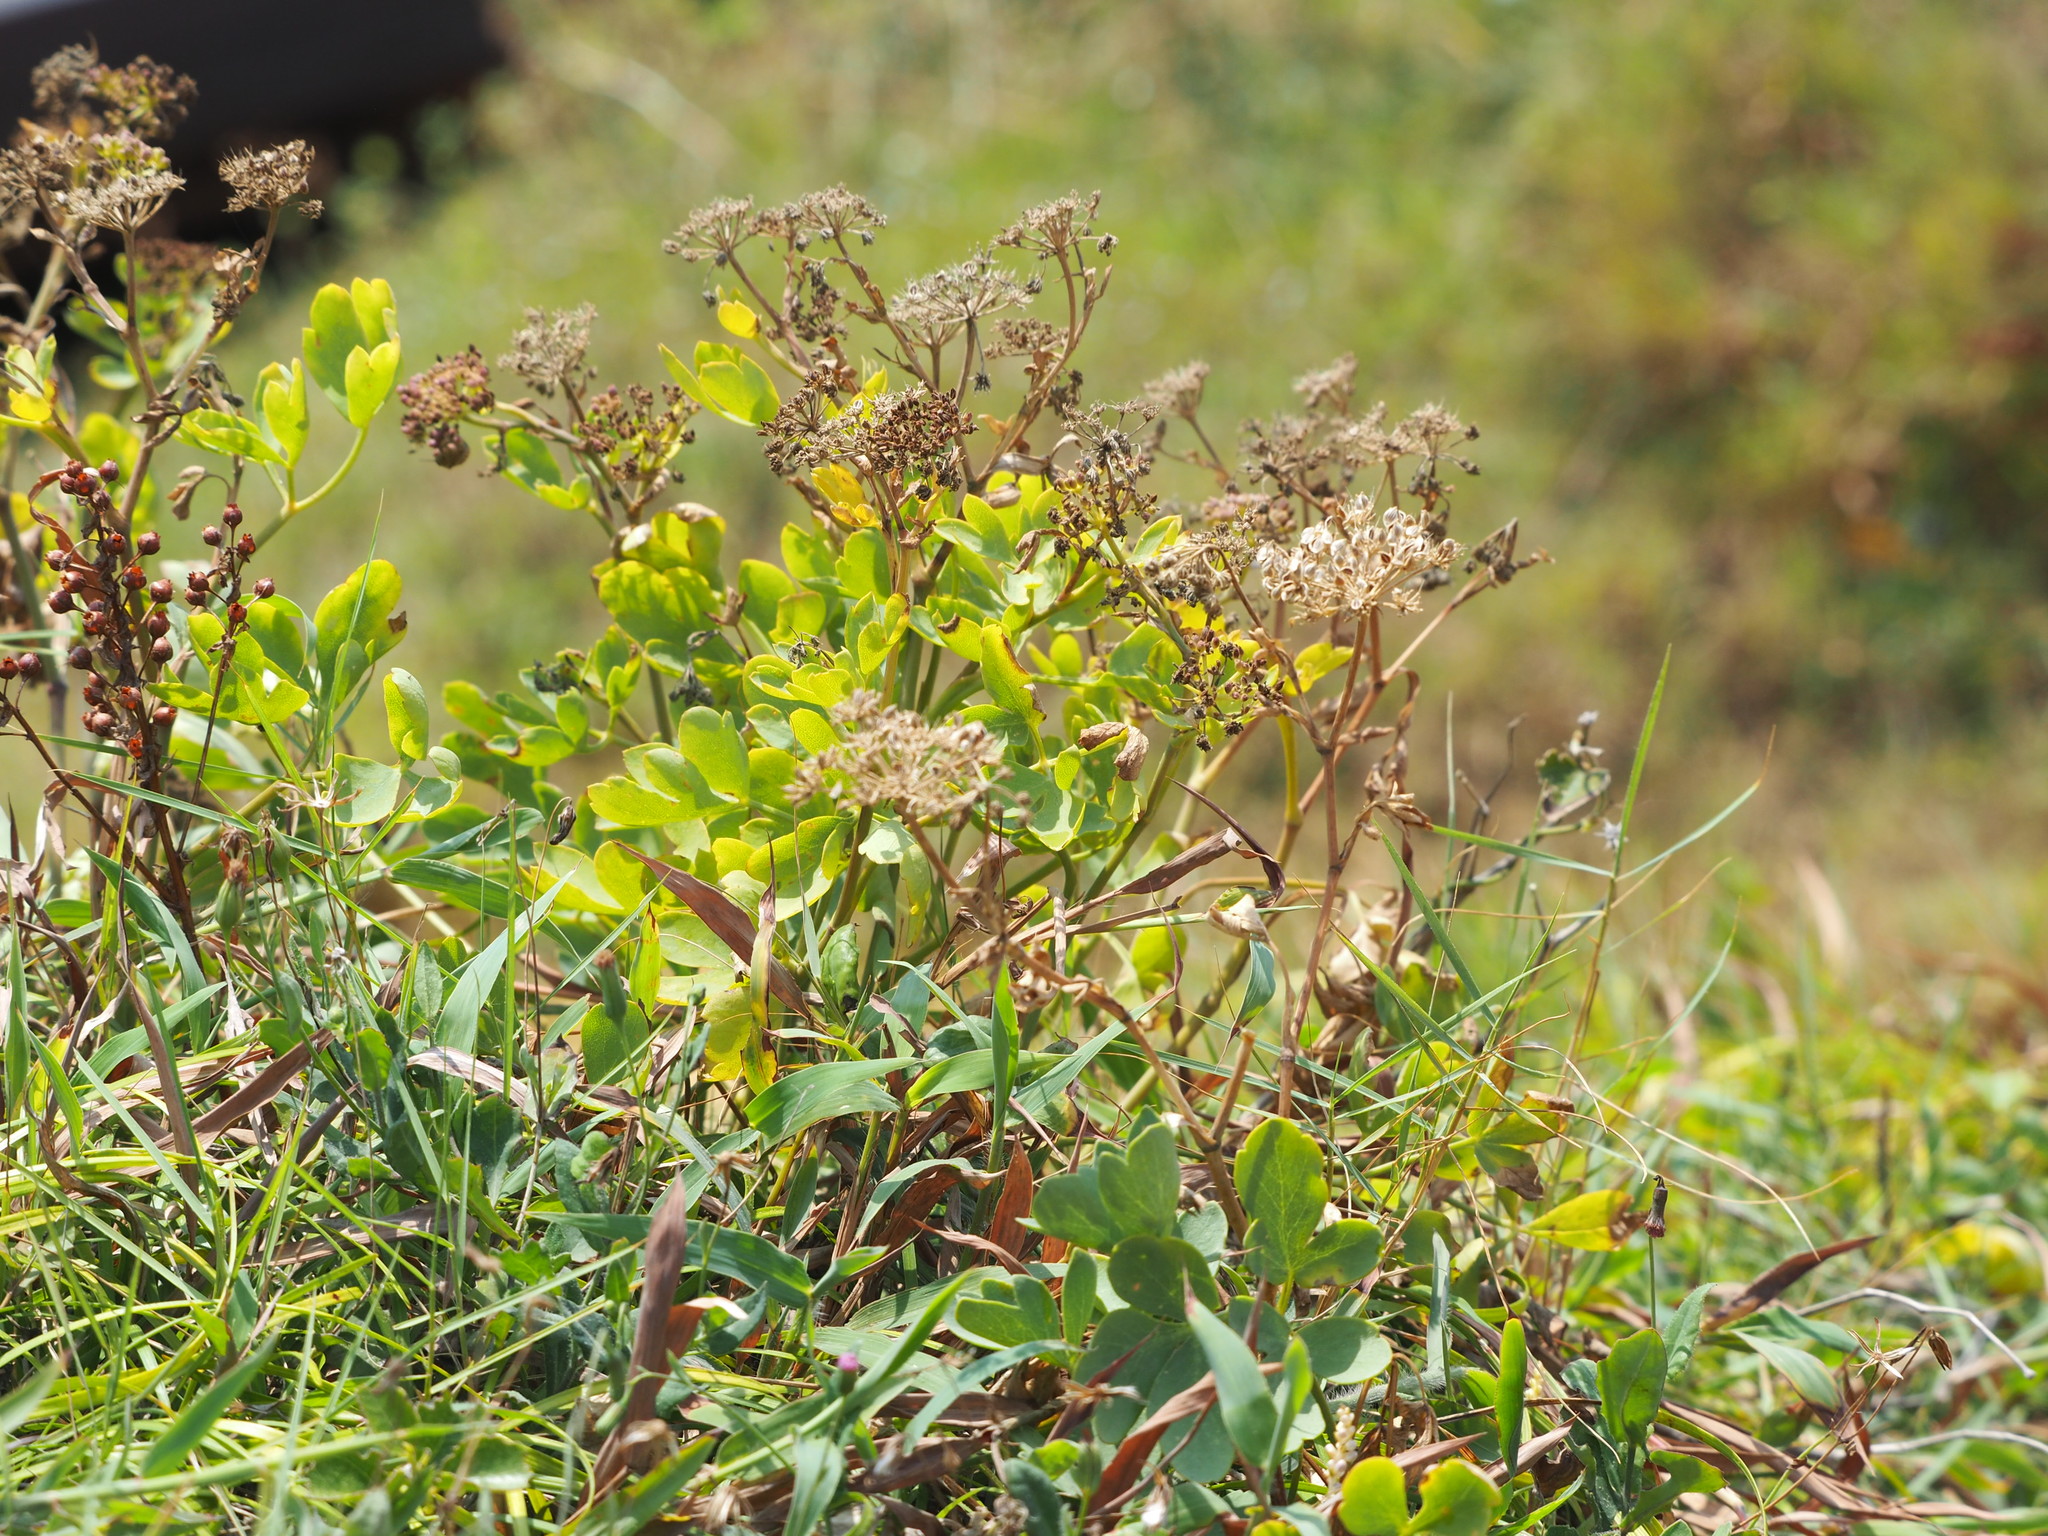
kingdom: Plantae
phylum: Tracheophyta
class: Magnoliopsida
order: Apiales
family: Apiaceae
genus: Peucedanum
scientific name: Peucedanum japonicum
